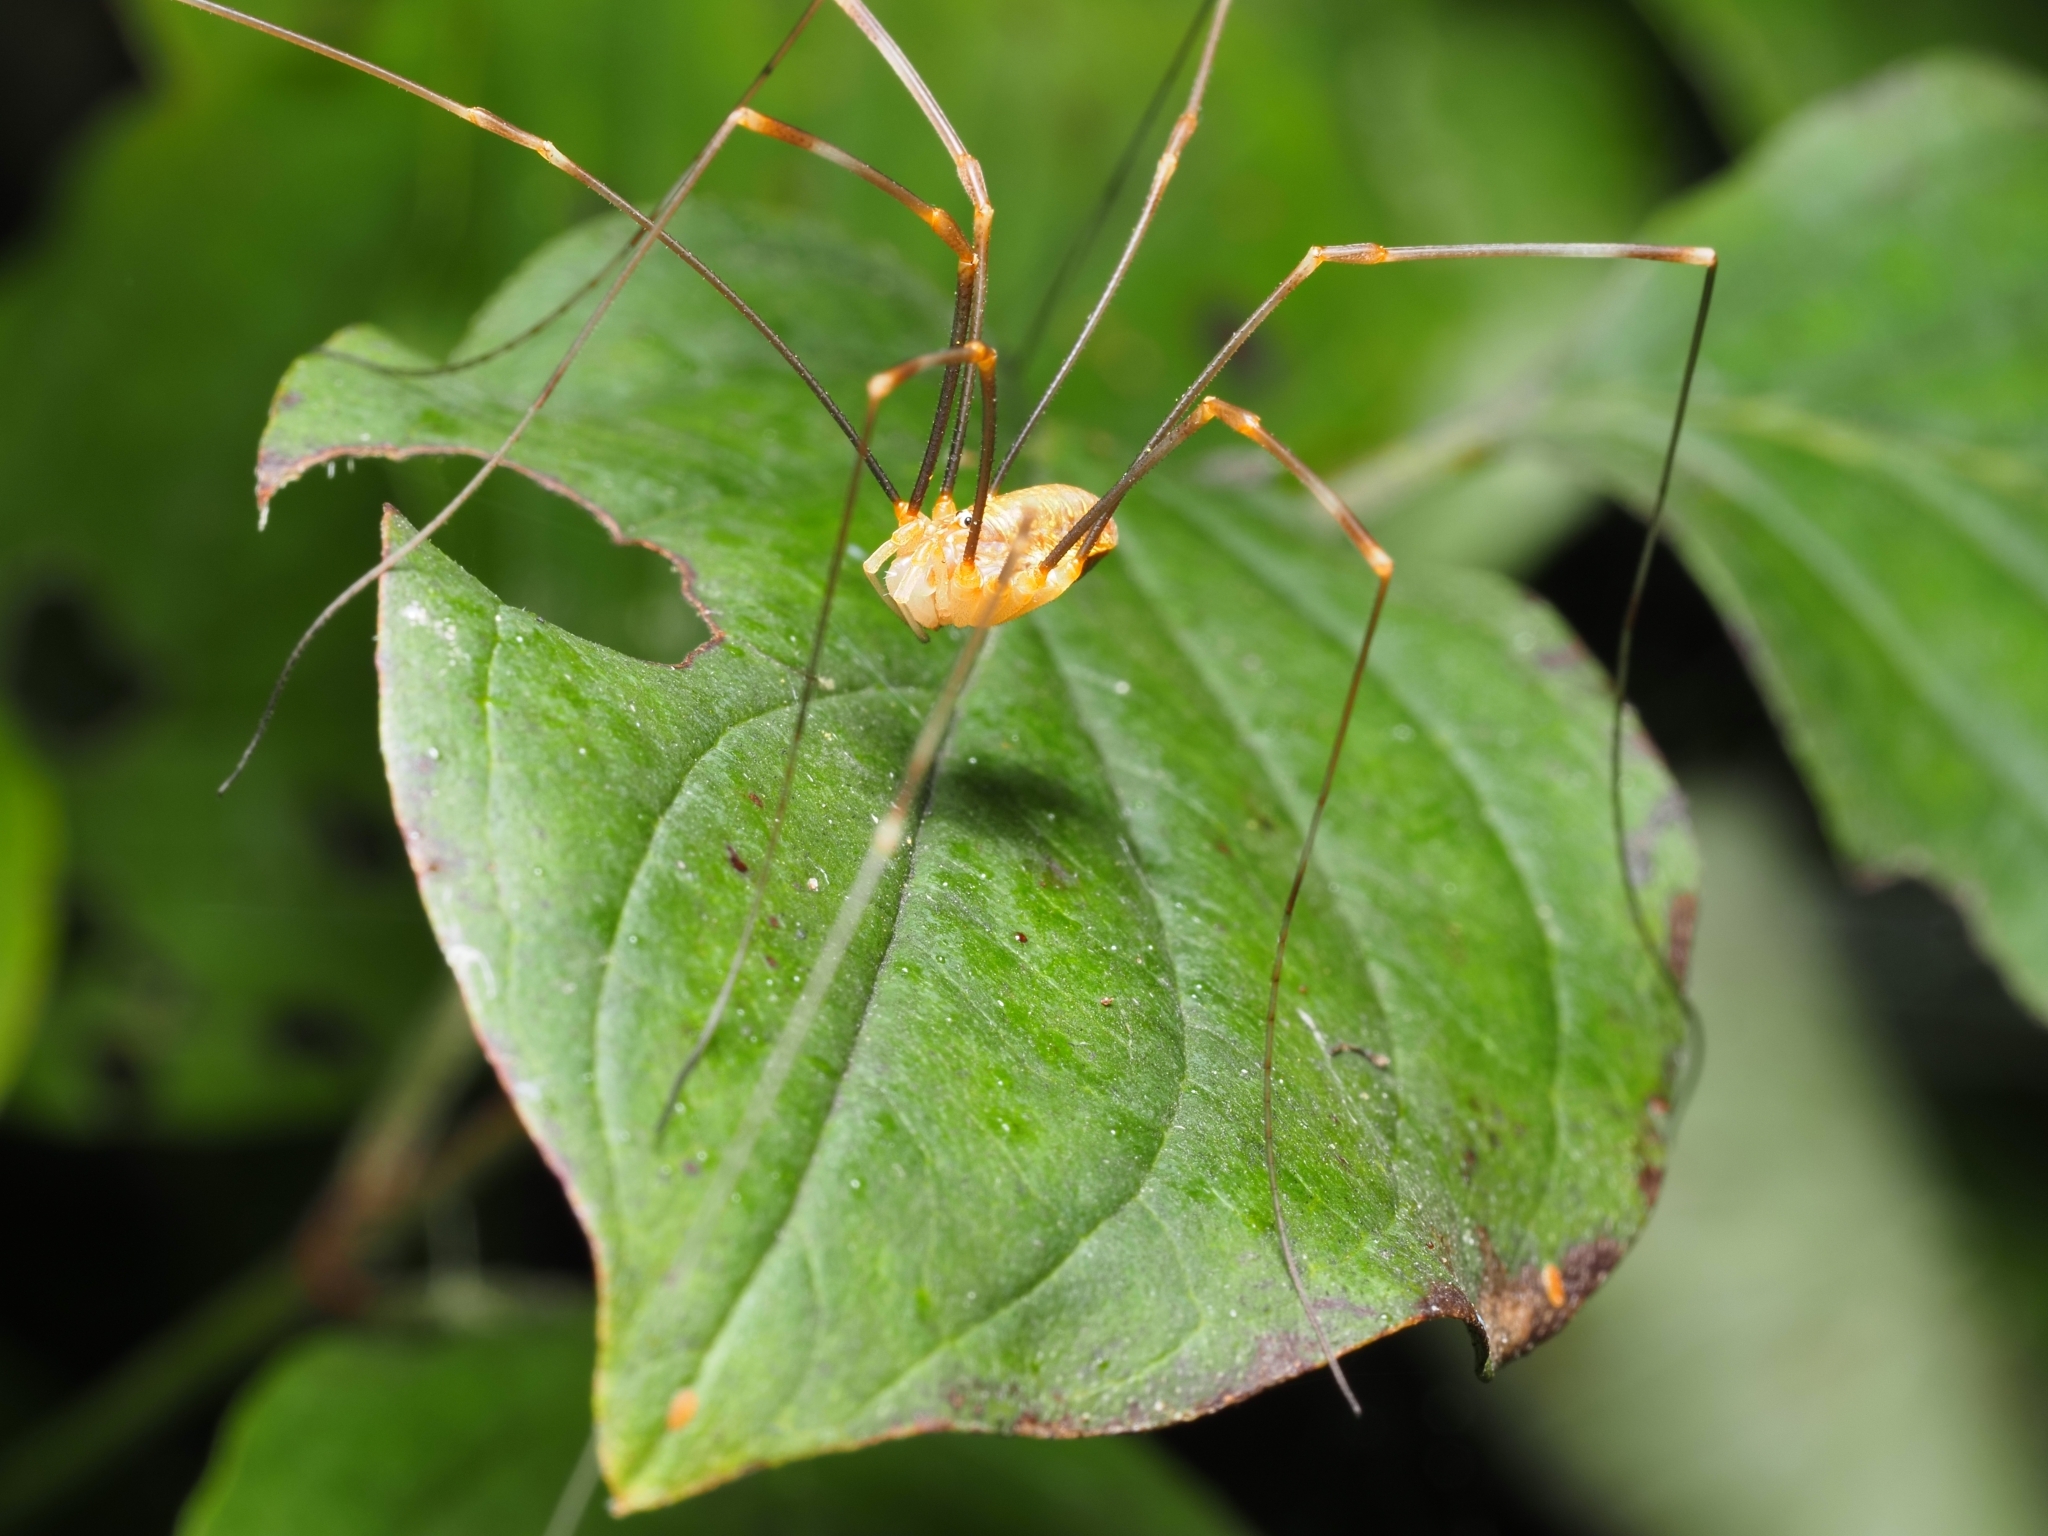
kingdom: Animalia
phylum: Arthropoda
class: Arachnida
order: Opiliones
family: Phalangiidae
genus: Opilio
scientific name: Opilio canestrinii
